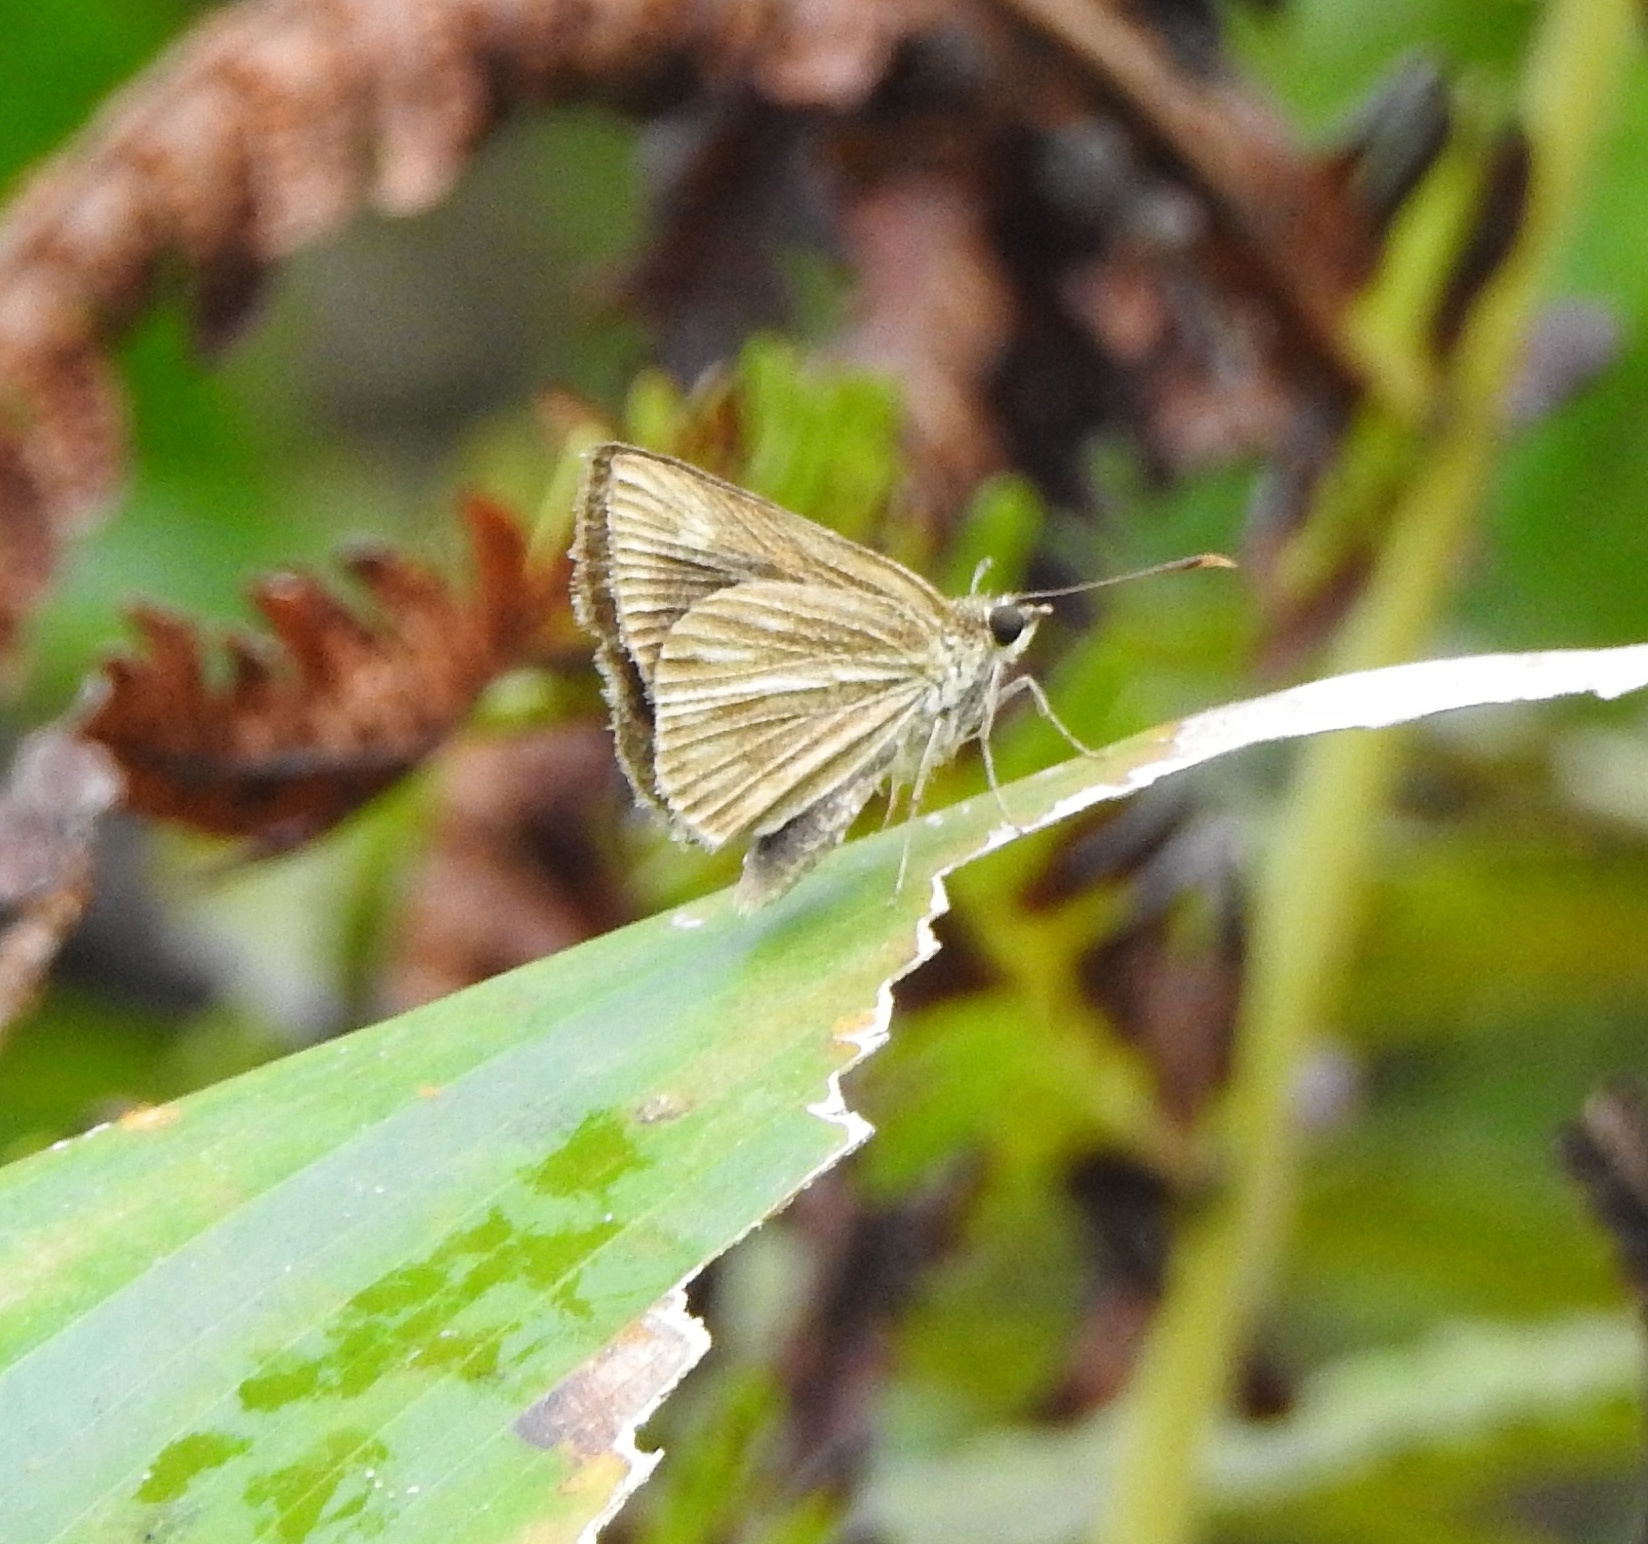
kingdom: Animalia
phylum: Arthropoda
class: Insecta
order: Lepidoptera
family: Hesperiidae
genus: Baracus
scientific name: Baracus vittatus
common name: Hedge-hopper
